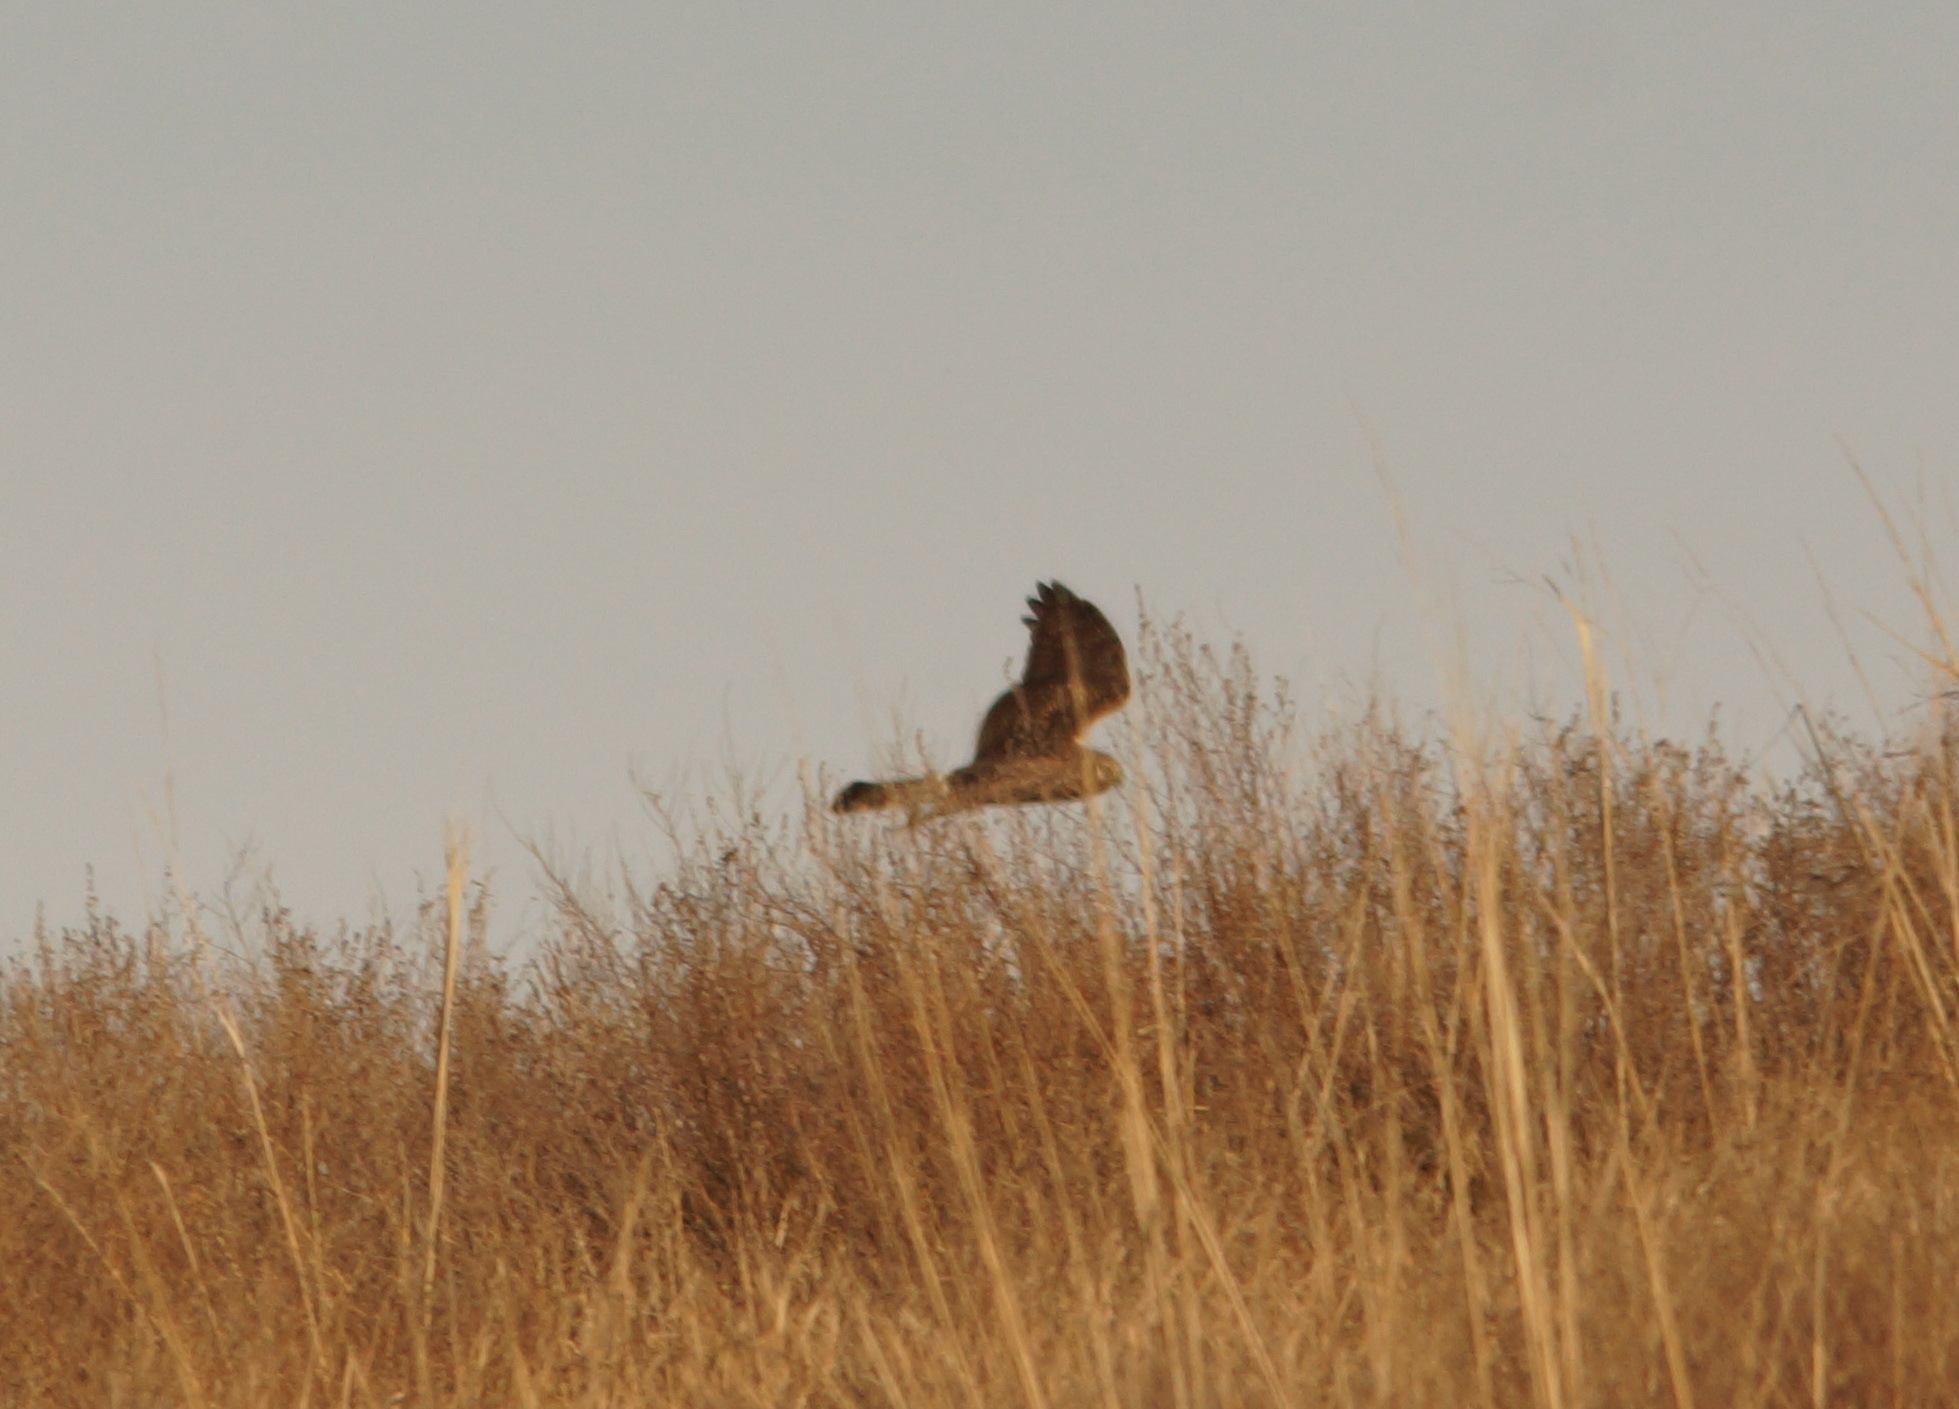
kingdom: Animalia
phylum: Chordata
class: Aves
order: Accipitriformes
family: Accipitridae
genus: Circus
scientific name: Circus cyaneus
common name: Hen harrier
